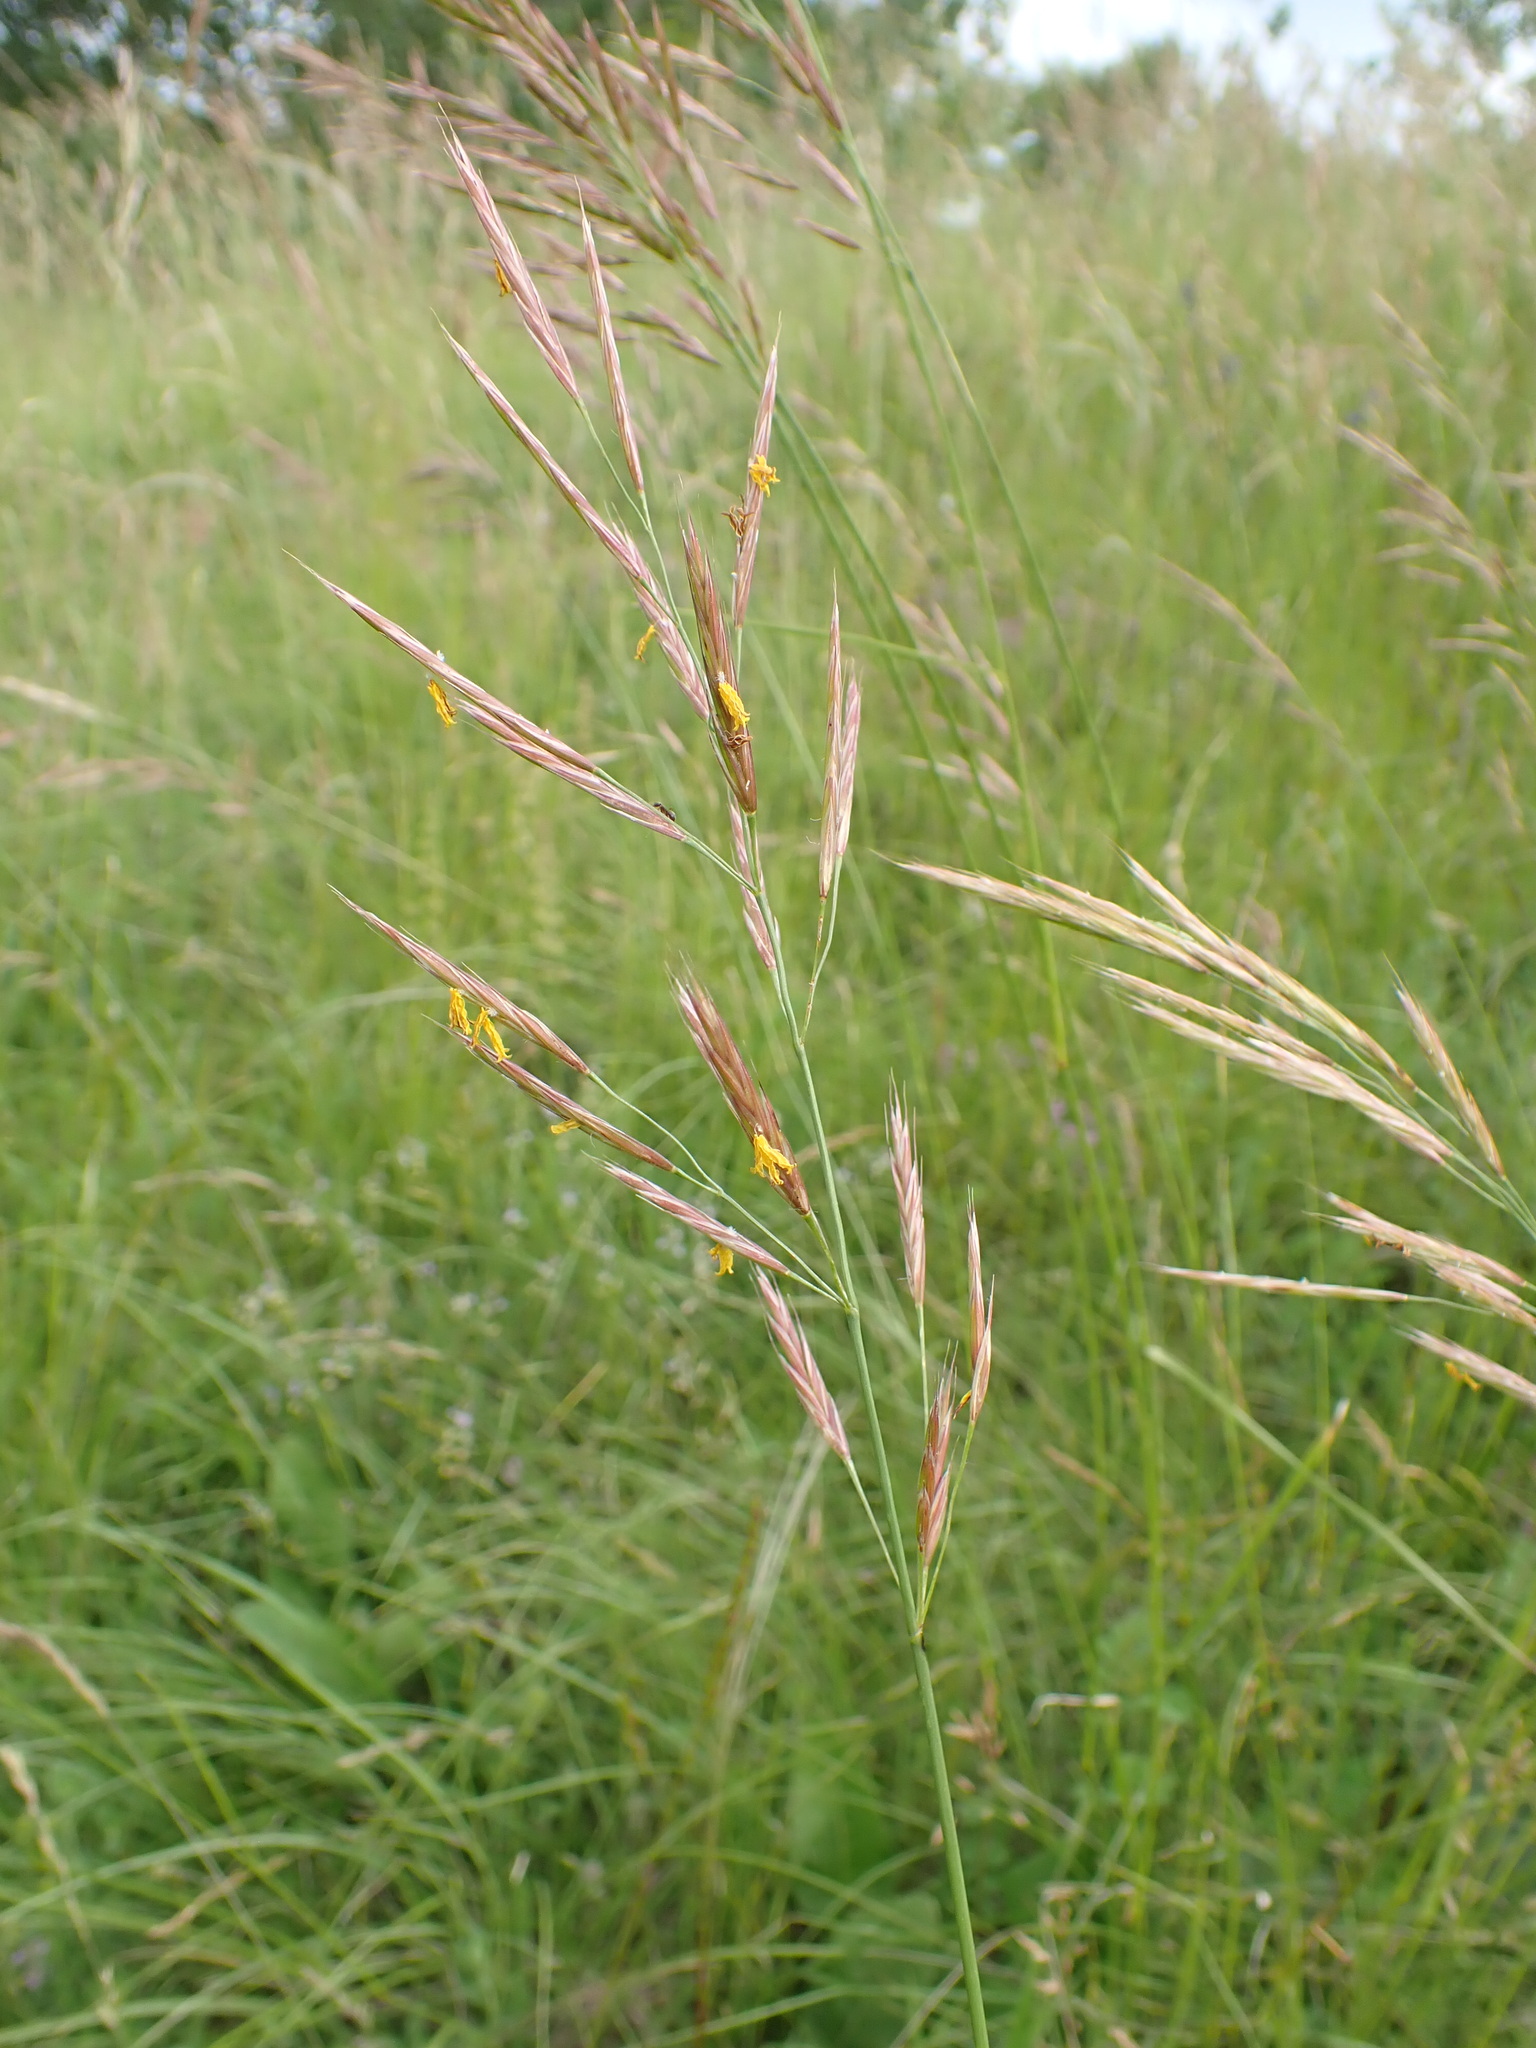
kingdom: Plantae
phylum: Tracheophyta
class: Liliopsida
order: Poales
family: Poaceae
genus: Bromus
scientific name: Bromus erectus
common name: Erect brome
